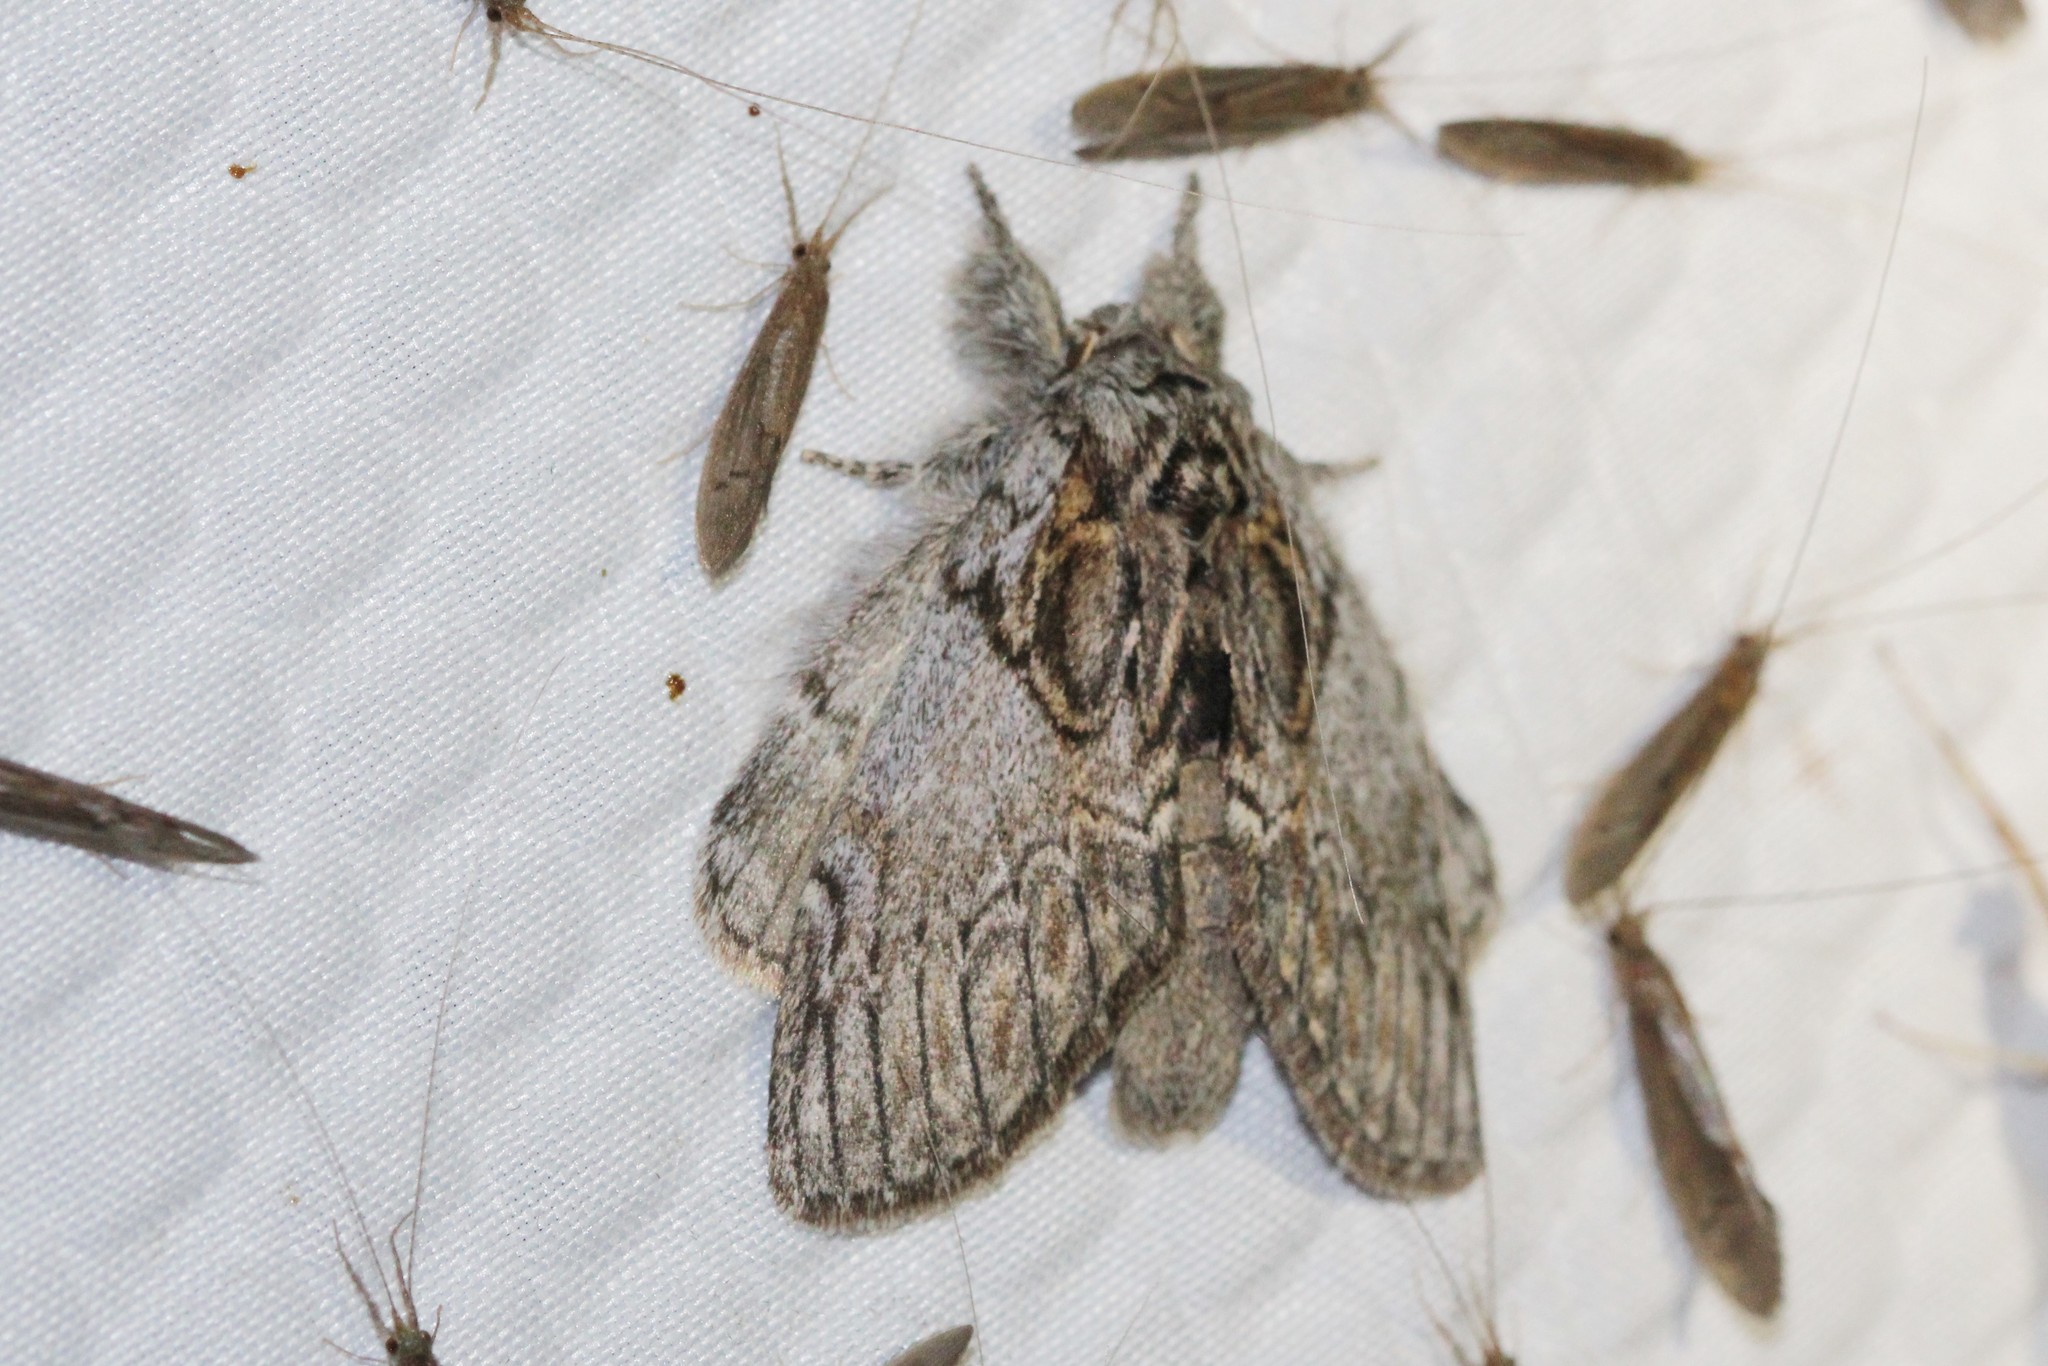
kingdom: Animalia
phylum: Arthropoda
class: Insecta
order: Lepidoptera
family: Notodontidae
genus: Peridea
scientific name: Peridea basitriens
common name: Oval-based prominent
